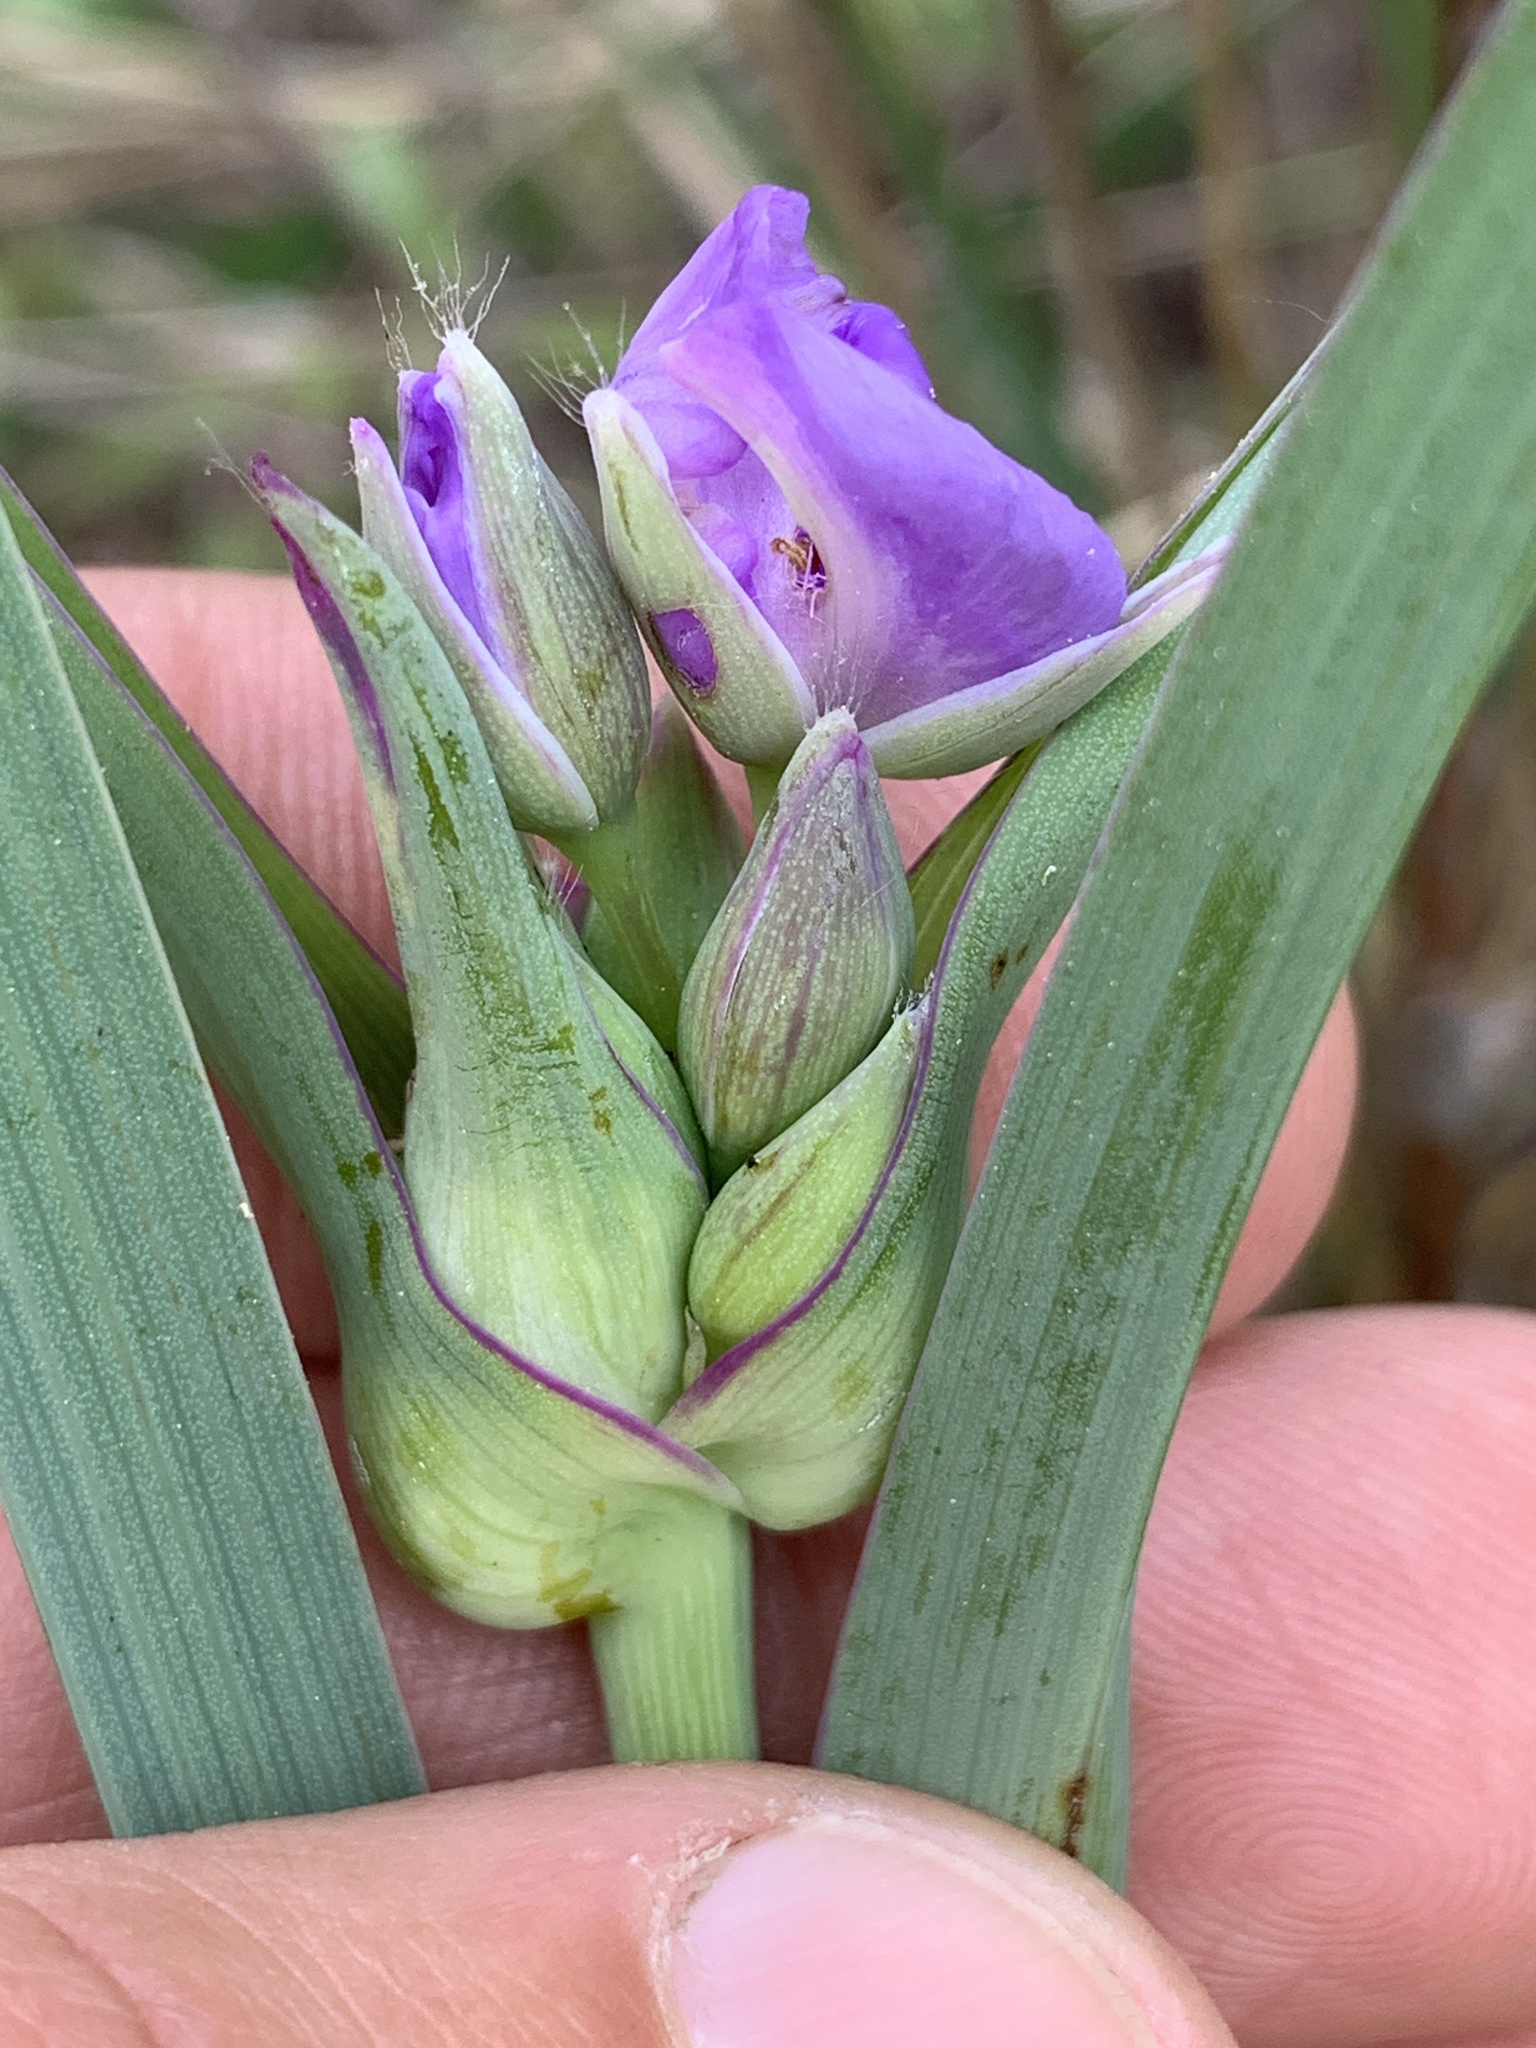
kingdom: Plantae
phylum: Tracheophyta
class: Liliopsida
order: Commelinales
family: Commelinaceae
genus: Tradescantia
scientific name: Tradescantia ohiensis
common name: Ohio spiderwort
